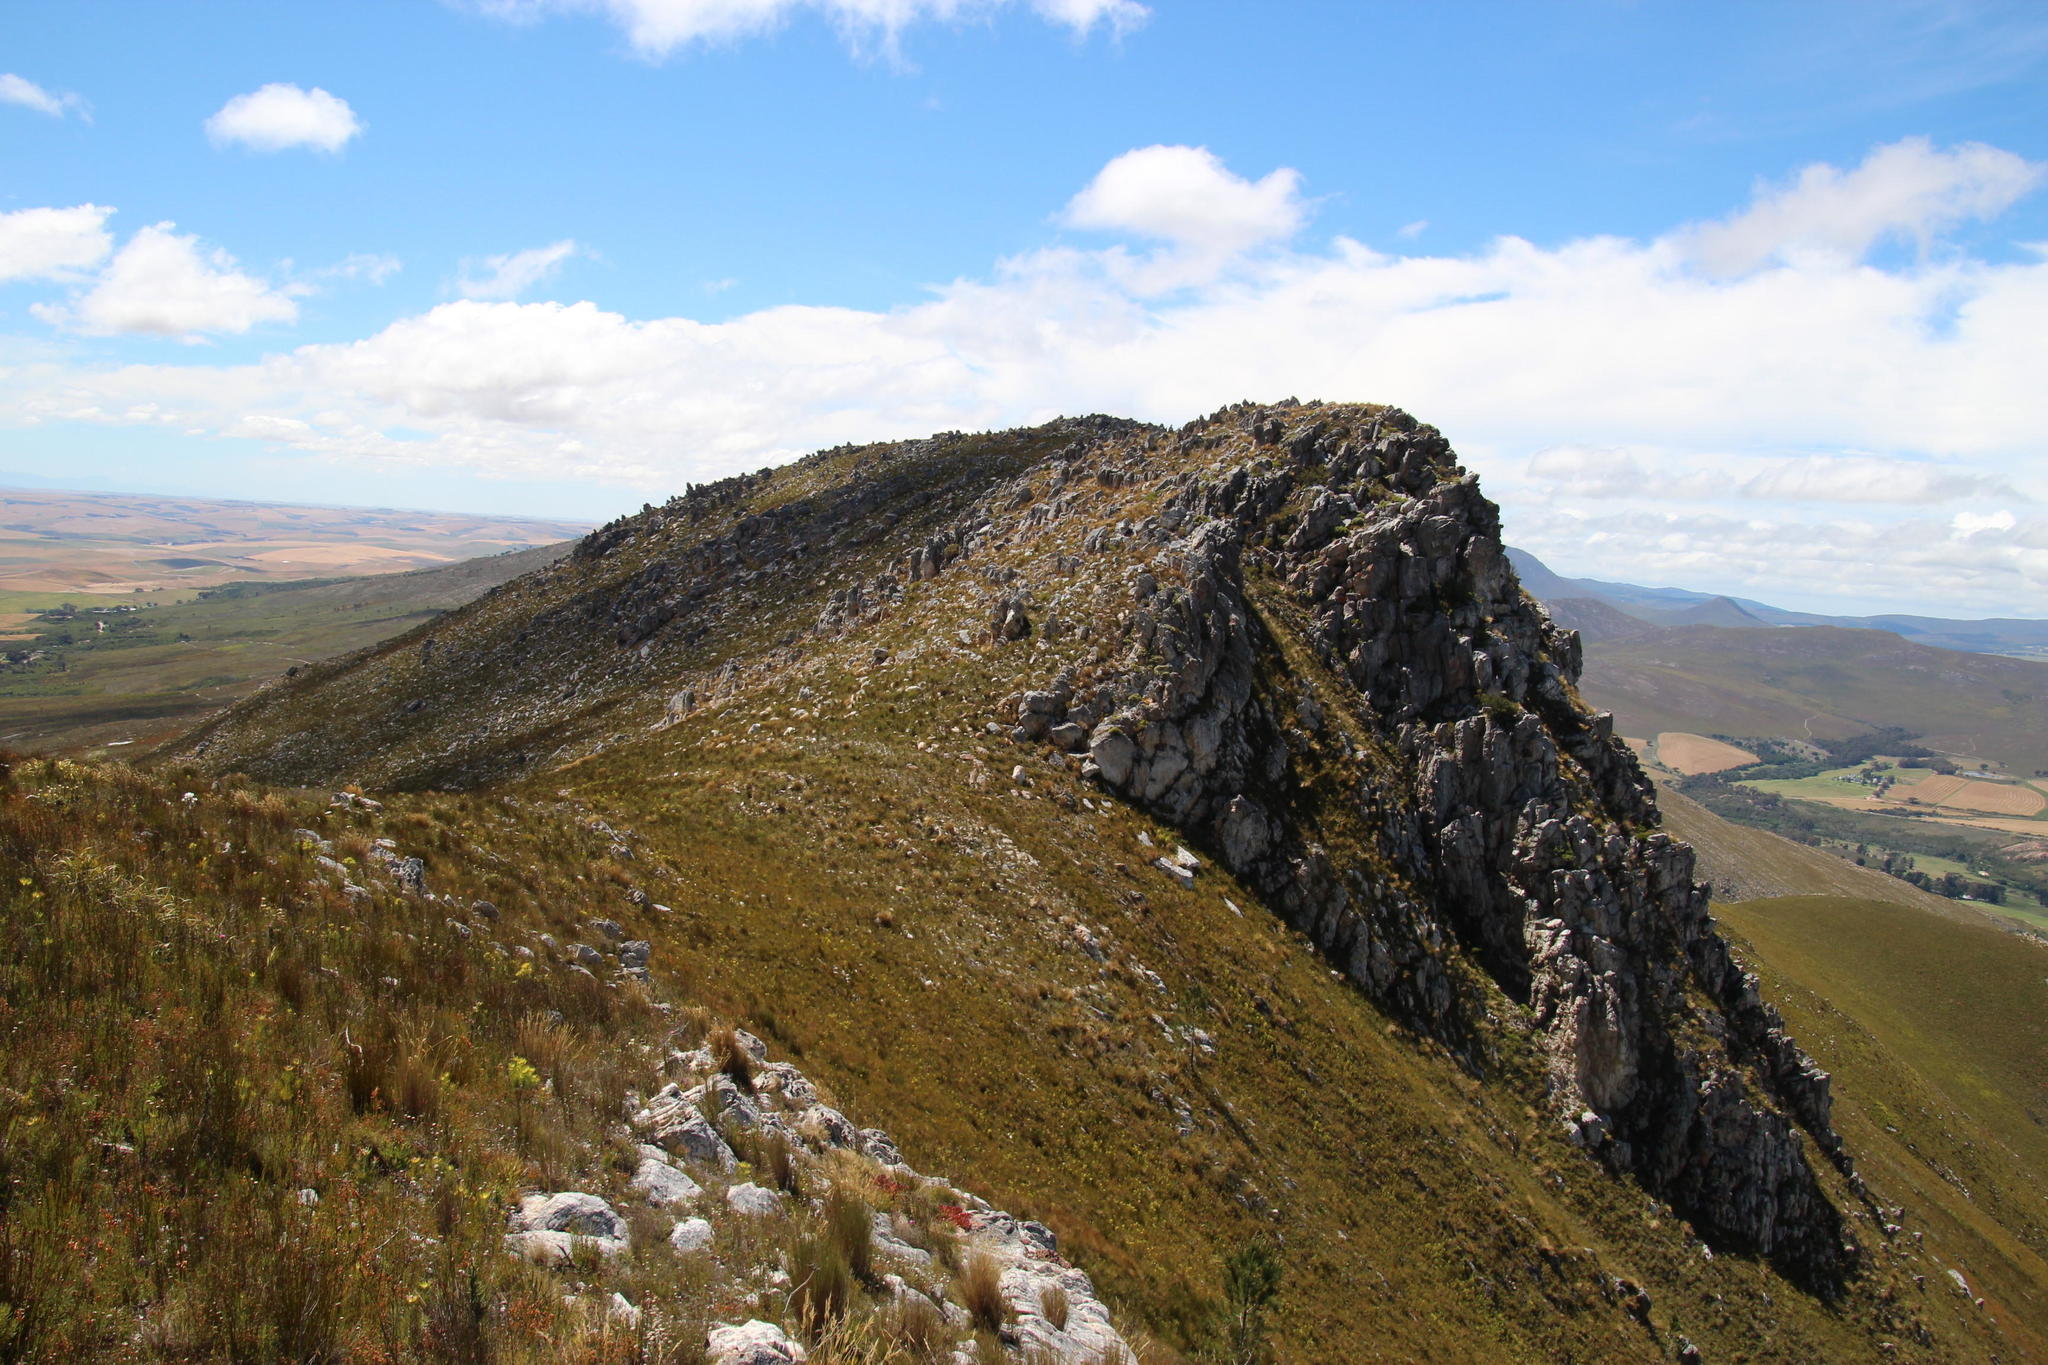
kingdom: Plantae
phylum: Tracheophyta
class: Magnoliopsida
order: Proteales
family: Proteaceae
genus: Aulax
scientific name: Aulax umbellata
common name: Broad-leaf featherbush
